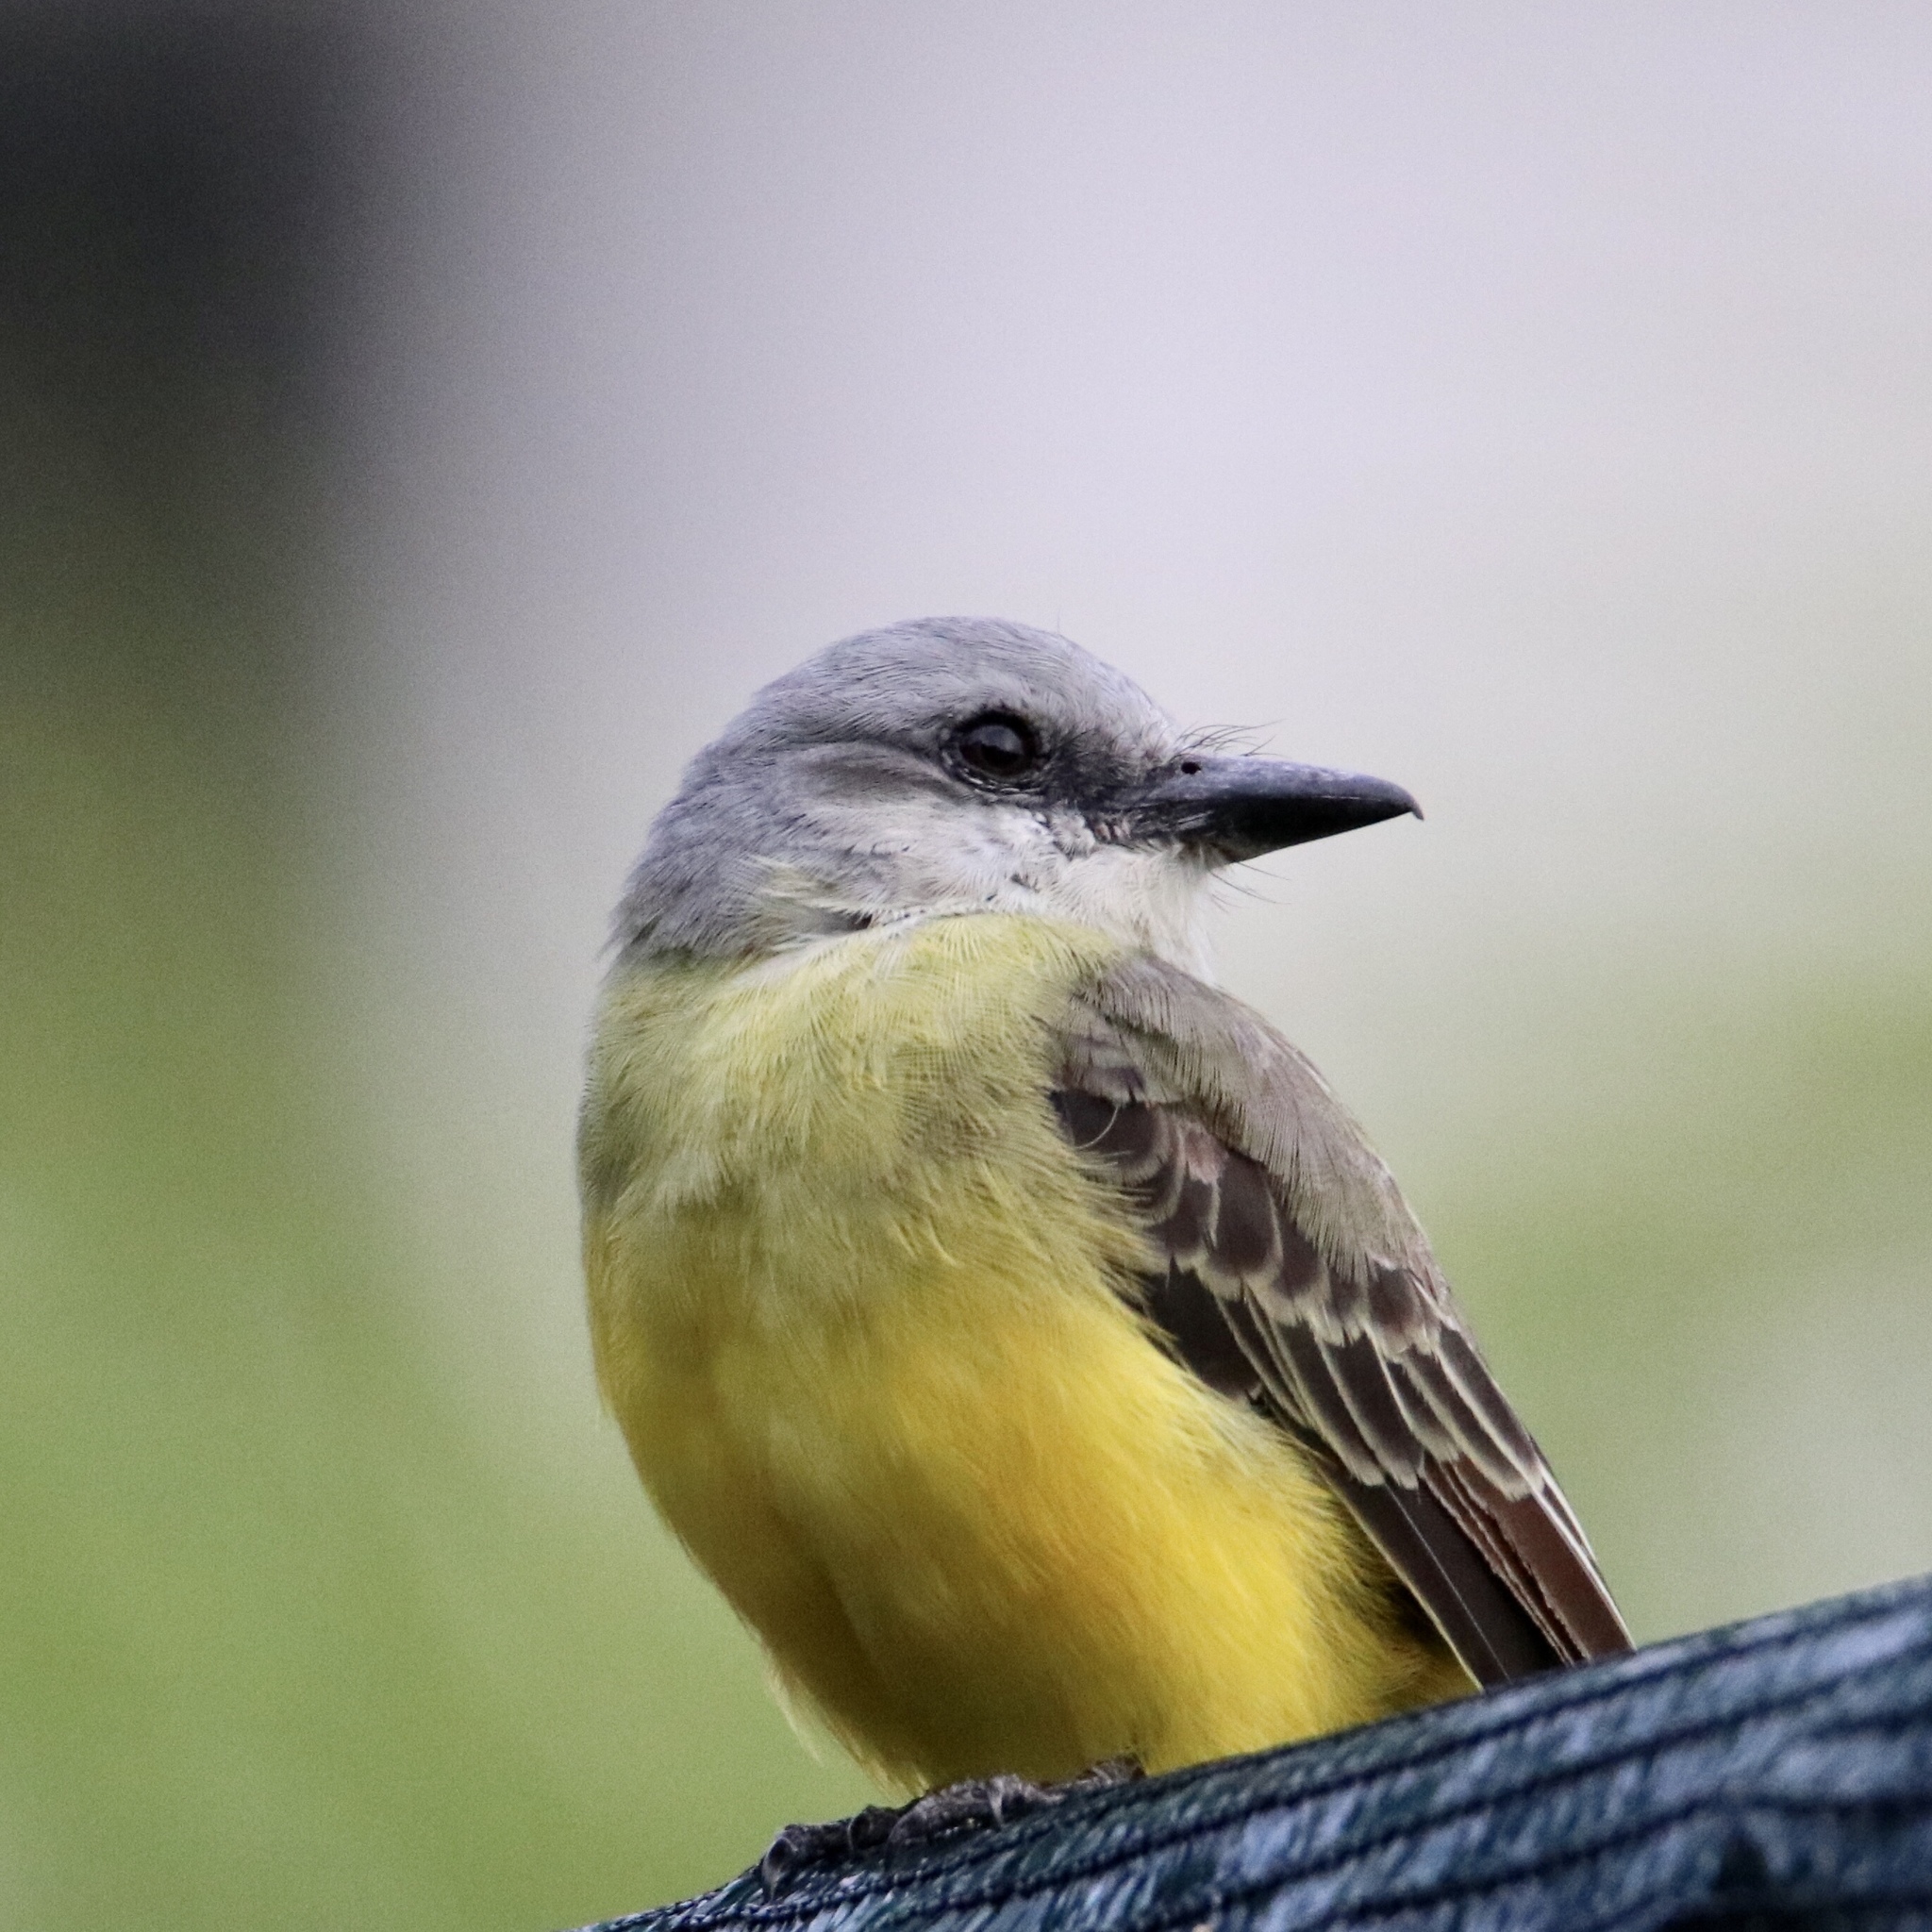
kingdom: Animalia
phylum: Chordata
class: Aves
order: Passeriformes
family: Tyrannidae
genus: Tyrannus
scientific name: Tyrannus melancholicus
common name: Tropical kingbird
